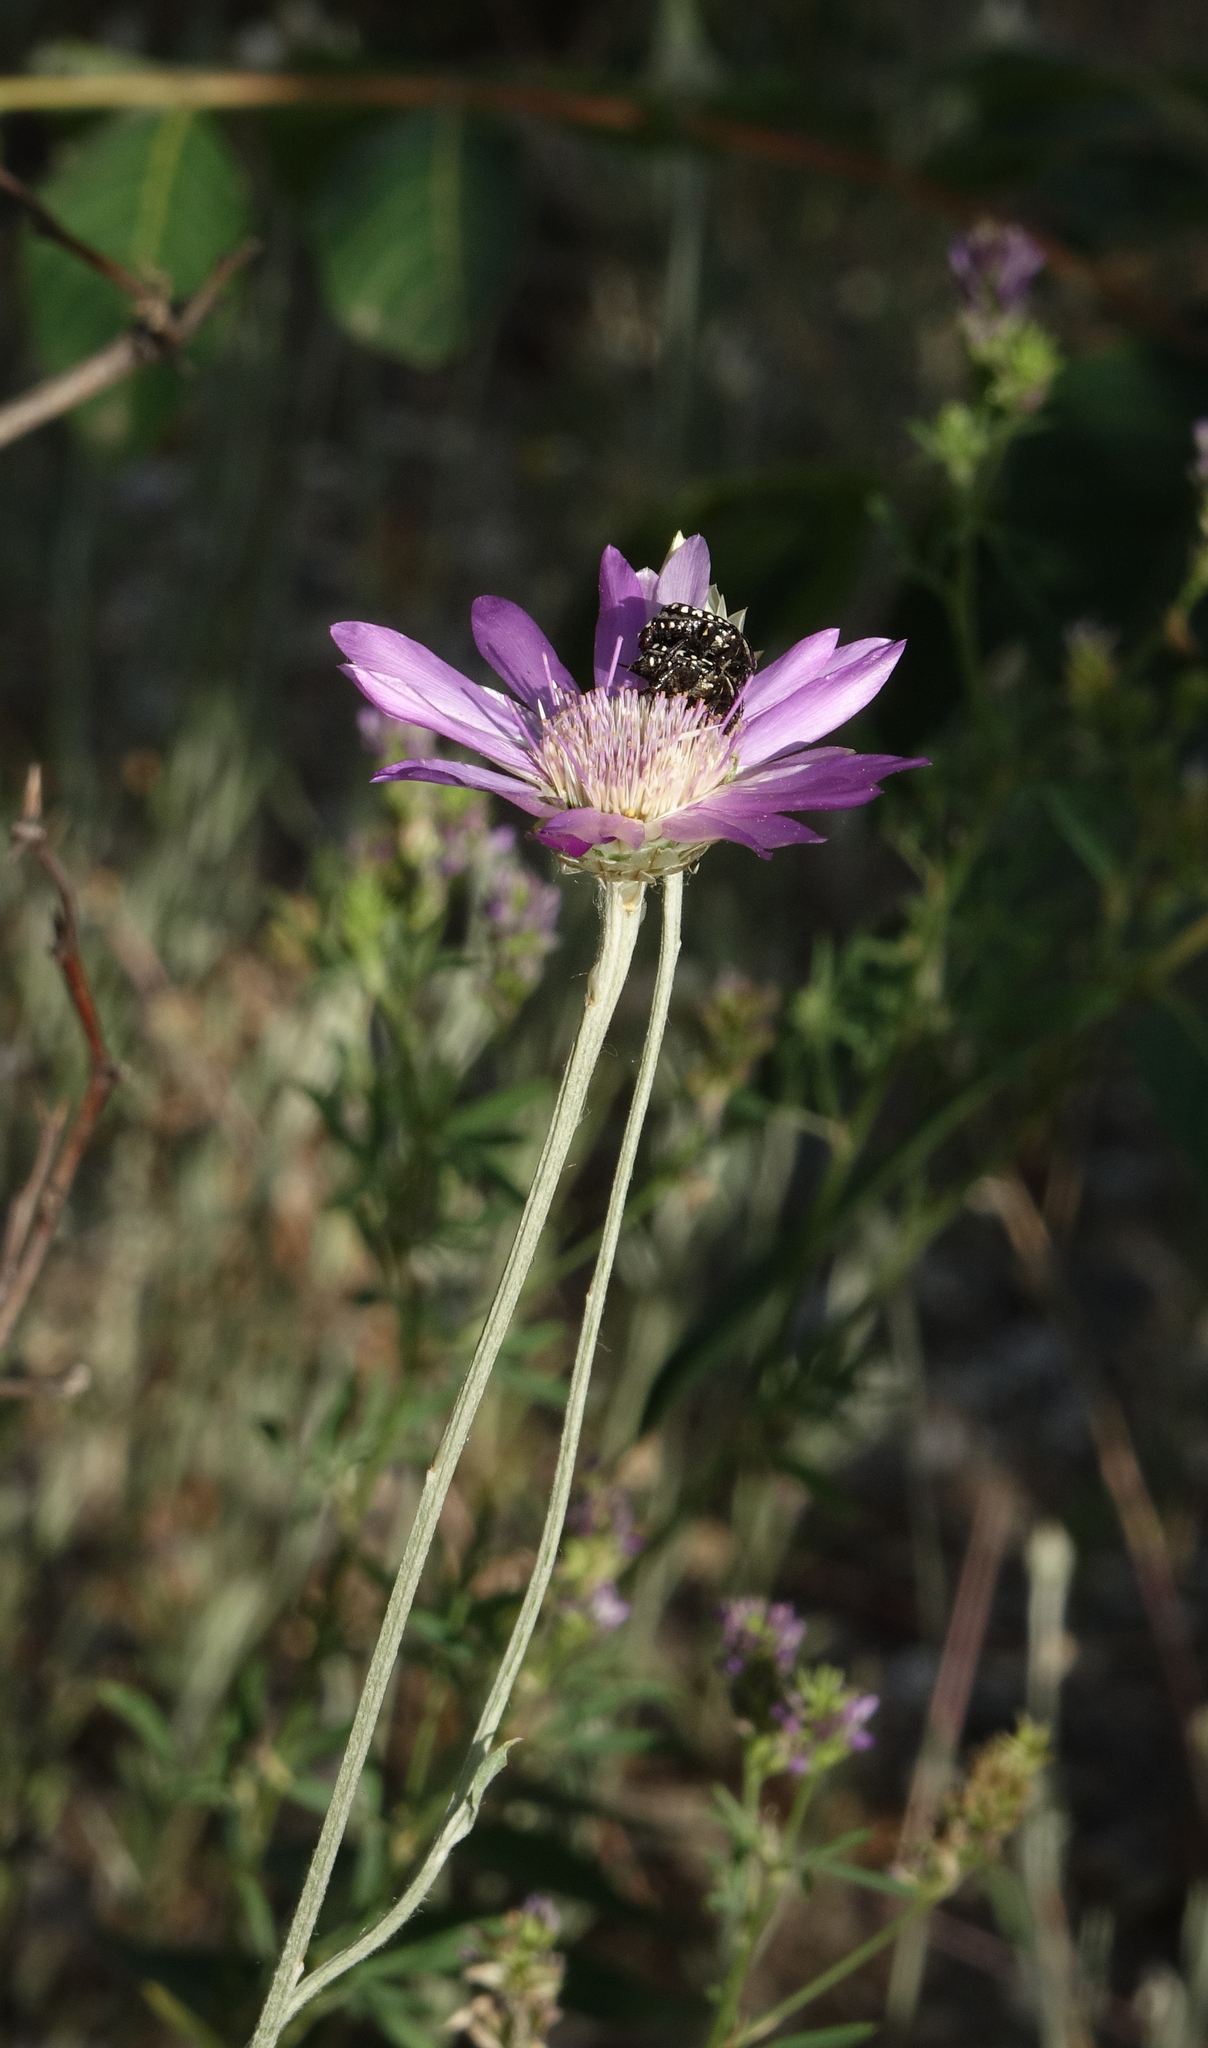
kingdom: Plantae
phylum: Tracheophyta
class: Magnoliopsida
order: Asterales
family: Asteraceae
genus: Xeranthemum
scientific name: Xeranthemum annuum
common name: Immortelle
